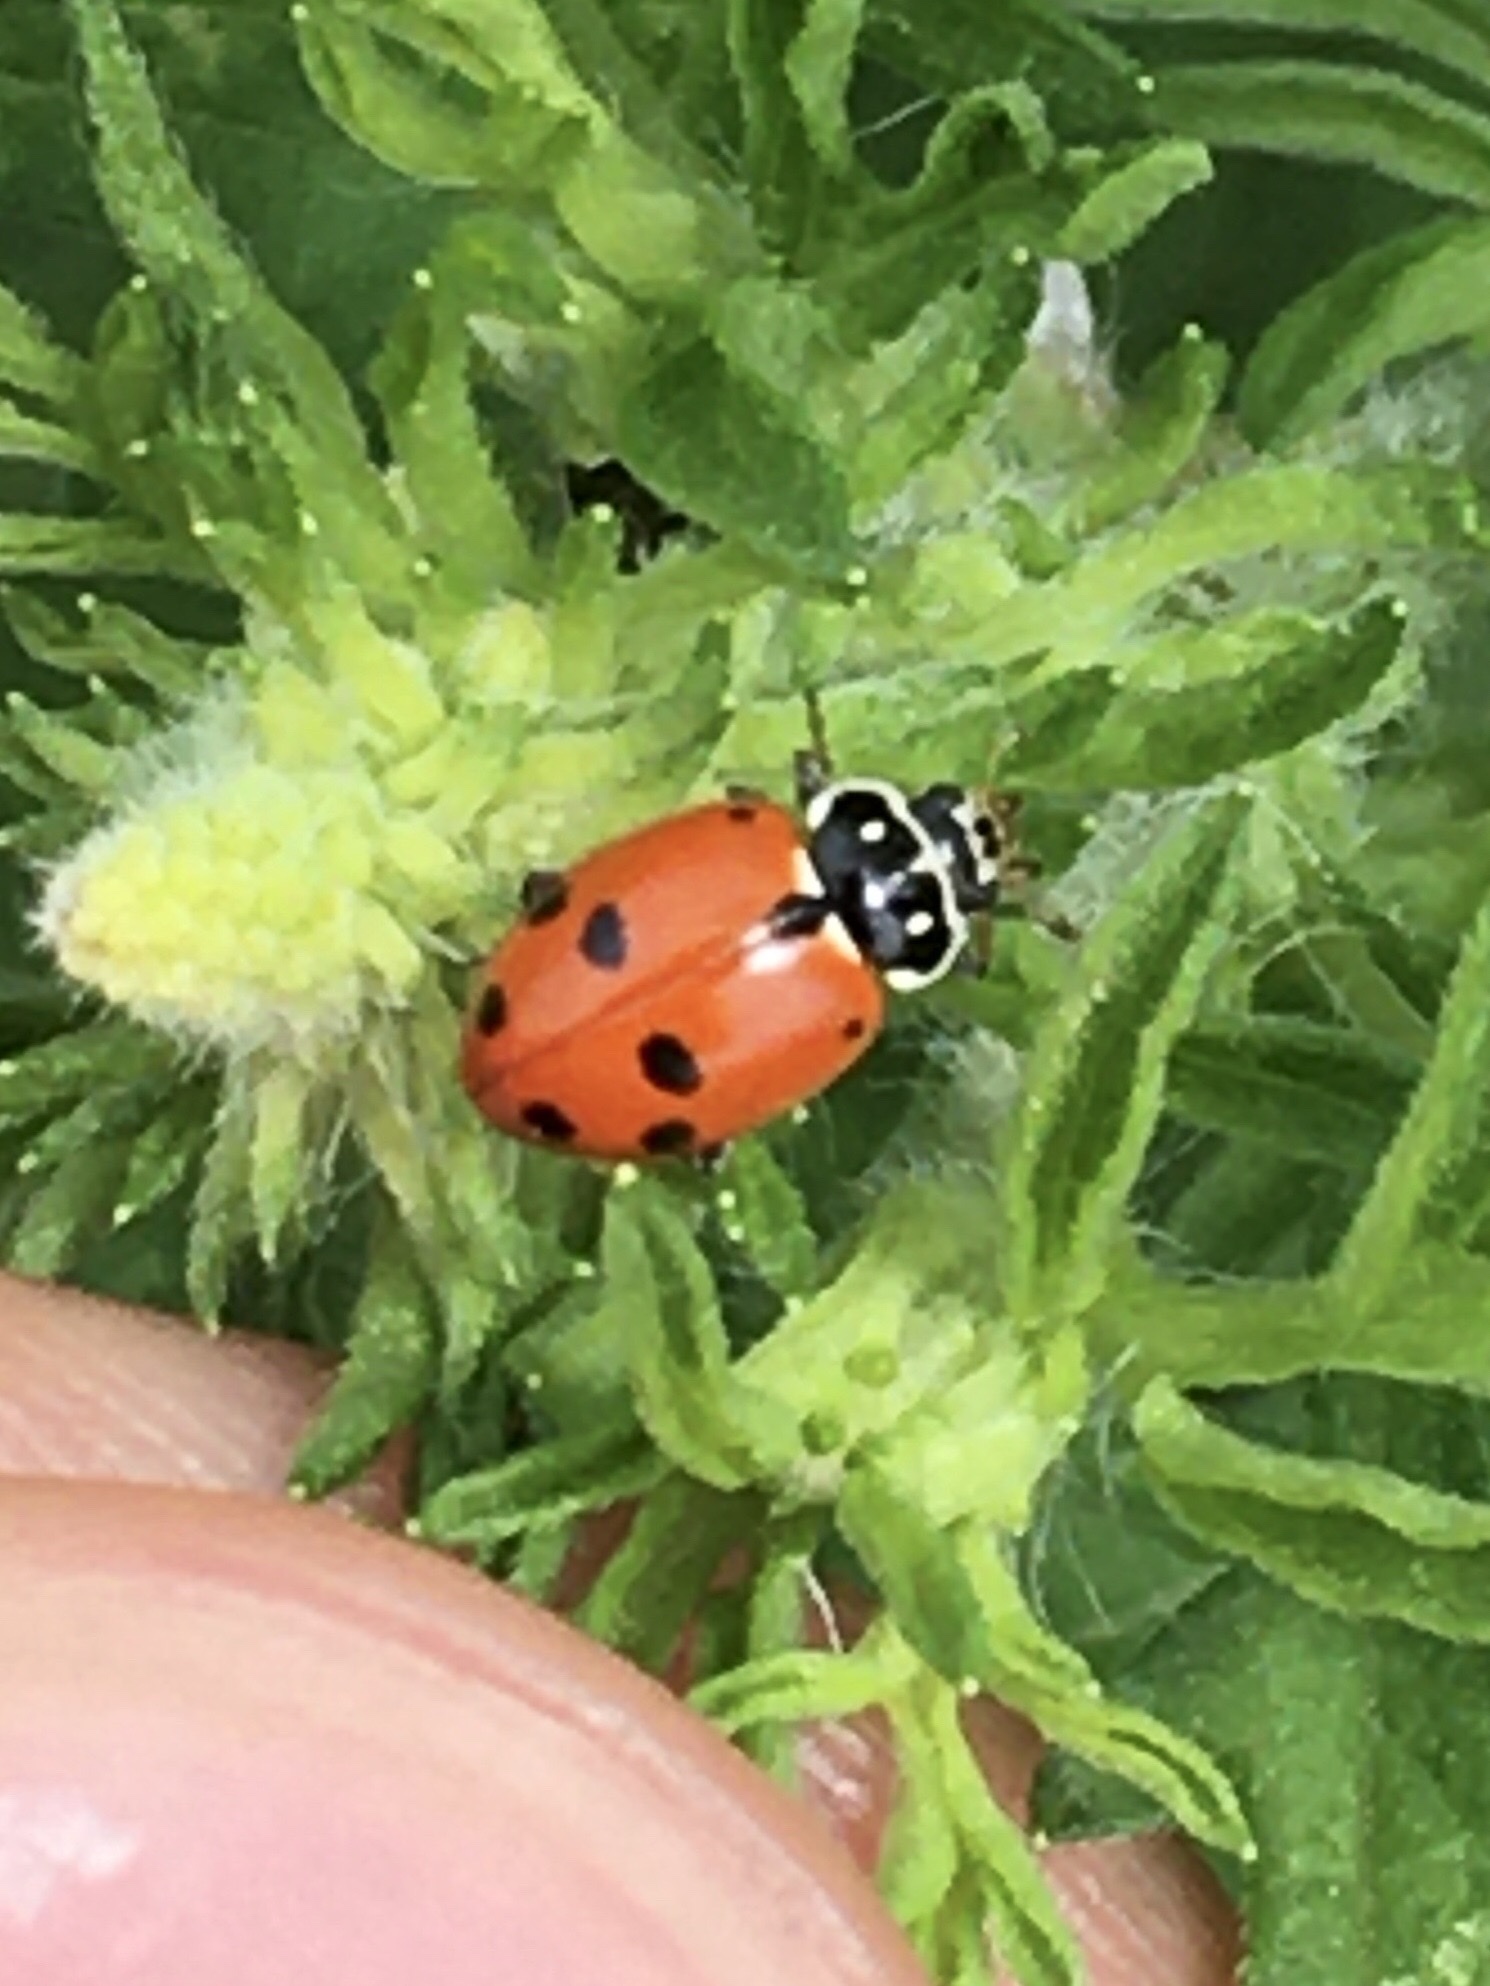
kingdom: Animalia
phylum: Arthropoda
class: Insecta
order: Coleoptera
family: Coccinellidae
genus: Hippodamia
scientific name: Hippodamia variegata
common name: Ladybird beetle
